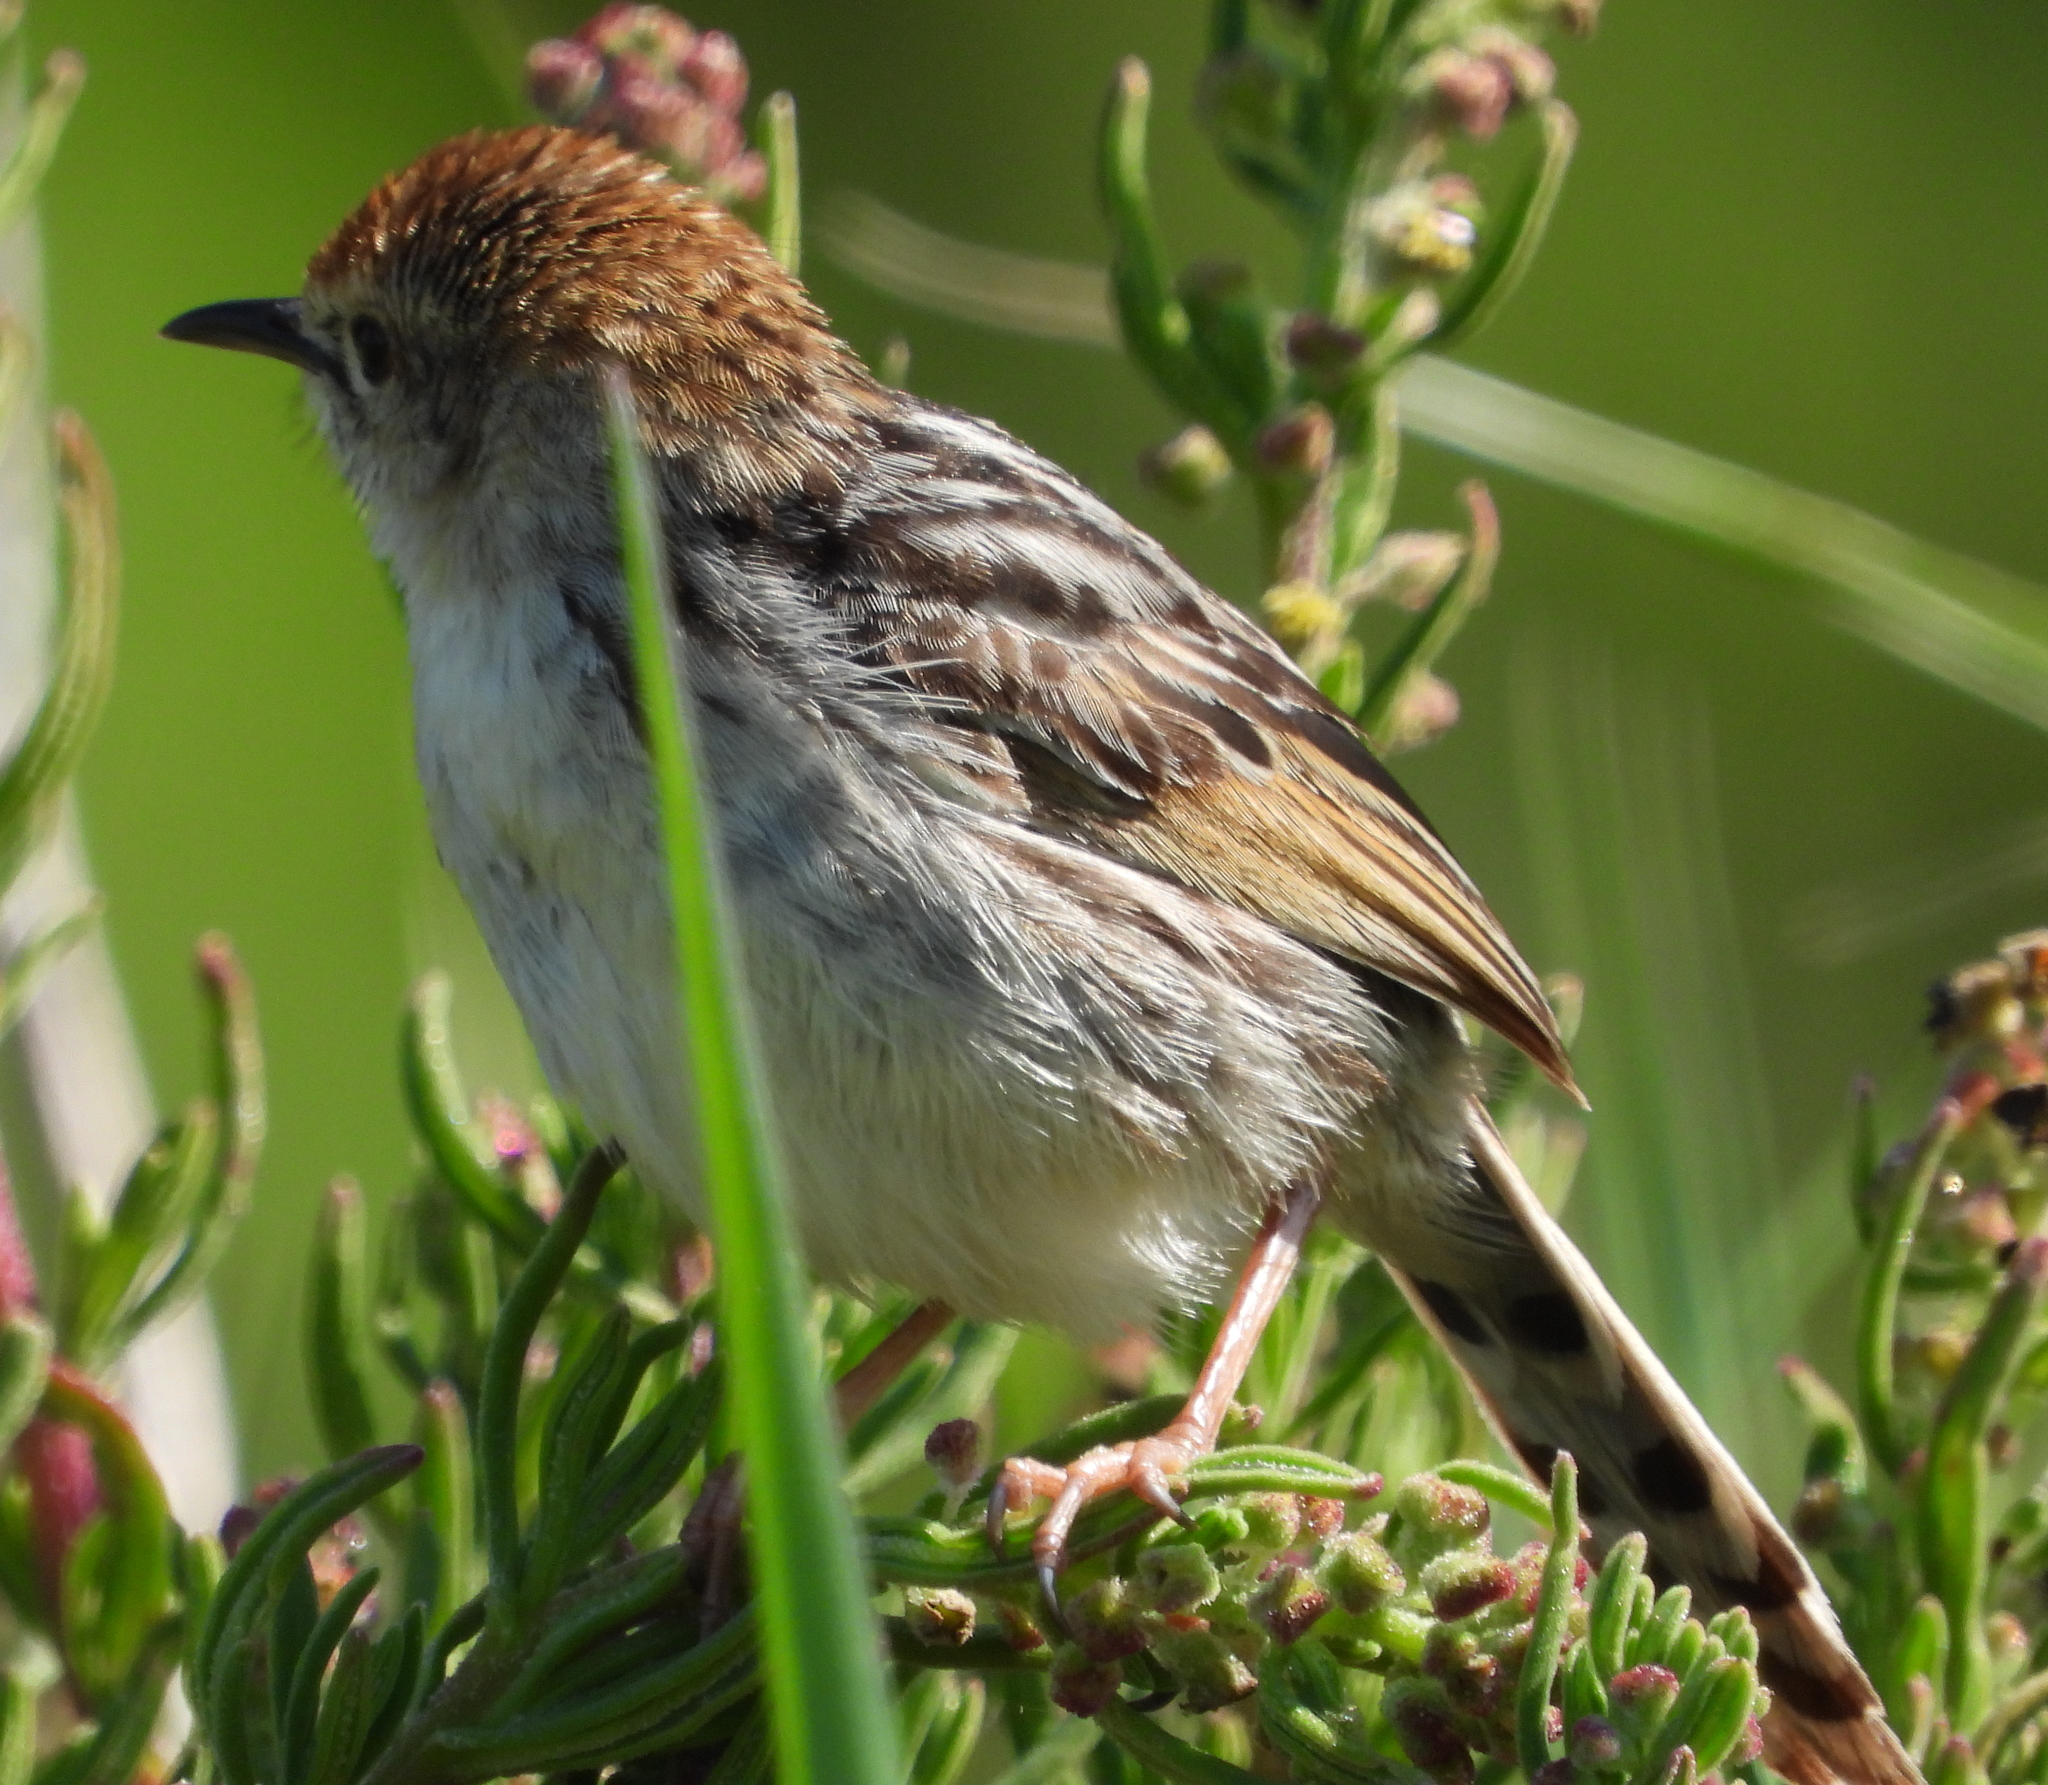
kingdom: Animalia
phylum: Chordata
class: Aves
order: Passeriformes
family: Cisticolidae
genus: Cisticola
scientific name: Cisticola tinniens
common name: Levaillant's cisticola
